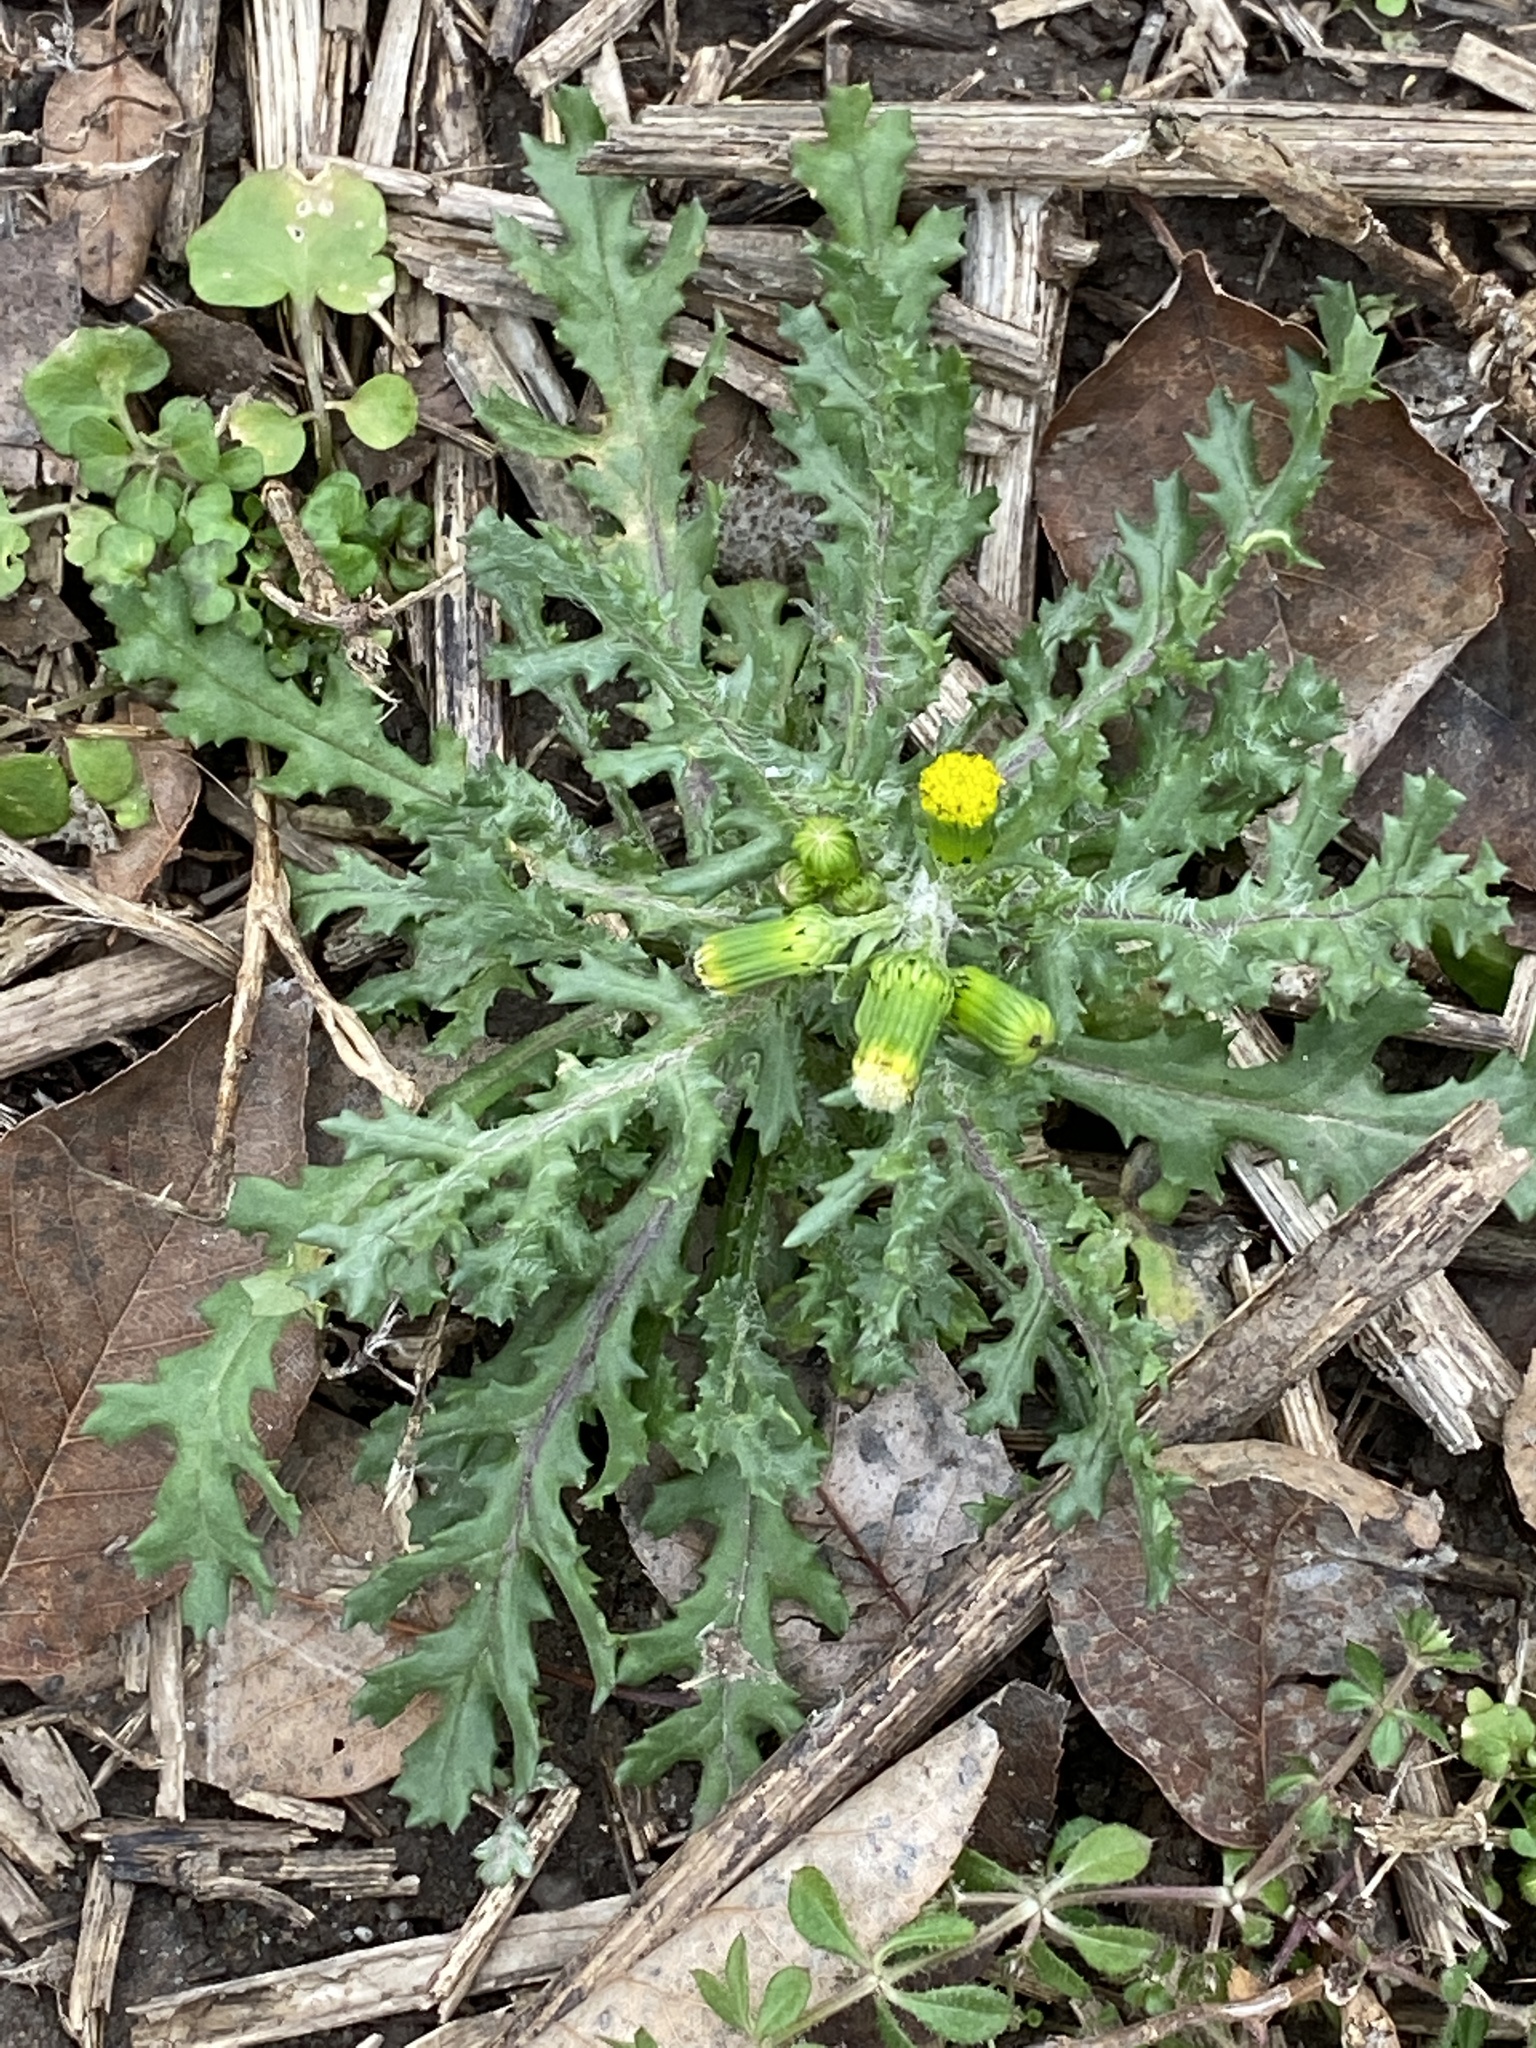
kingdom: Plantae
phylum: Tracheophyta
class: Magnoliopsida
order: Asterales
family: Asteraceae
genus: Senecio
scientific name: Senecio vulgaris
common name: Old-man-in-the-spring
